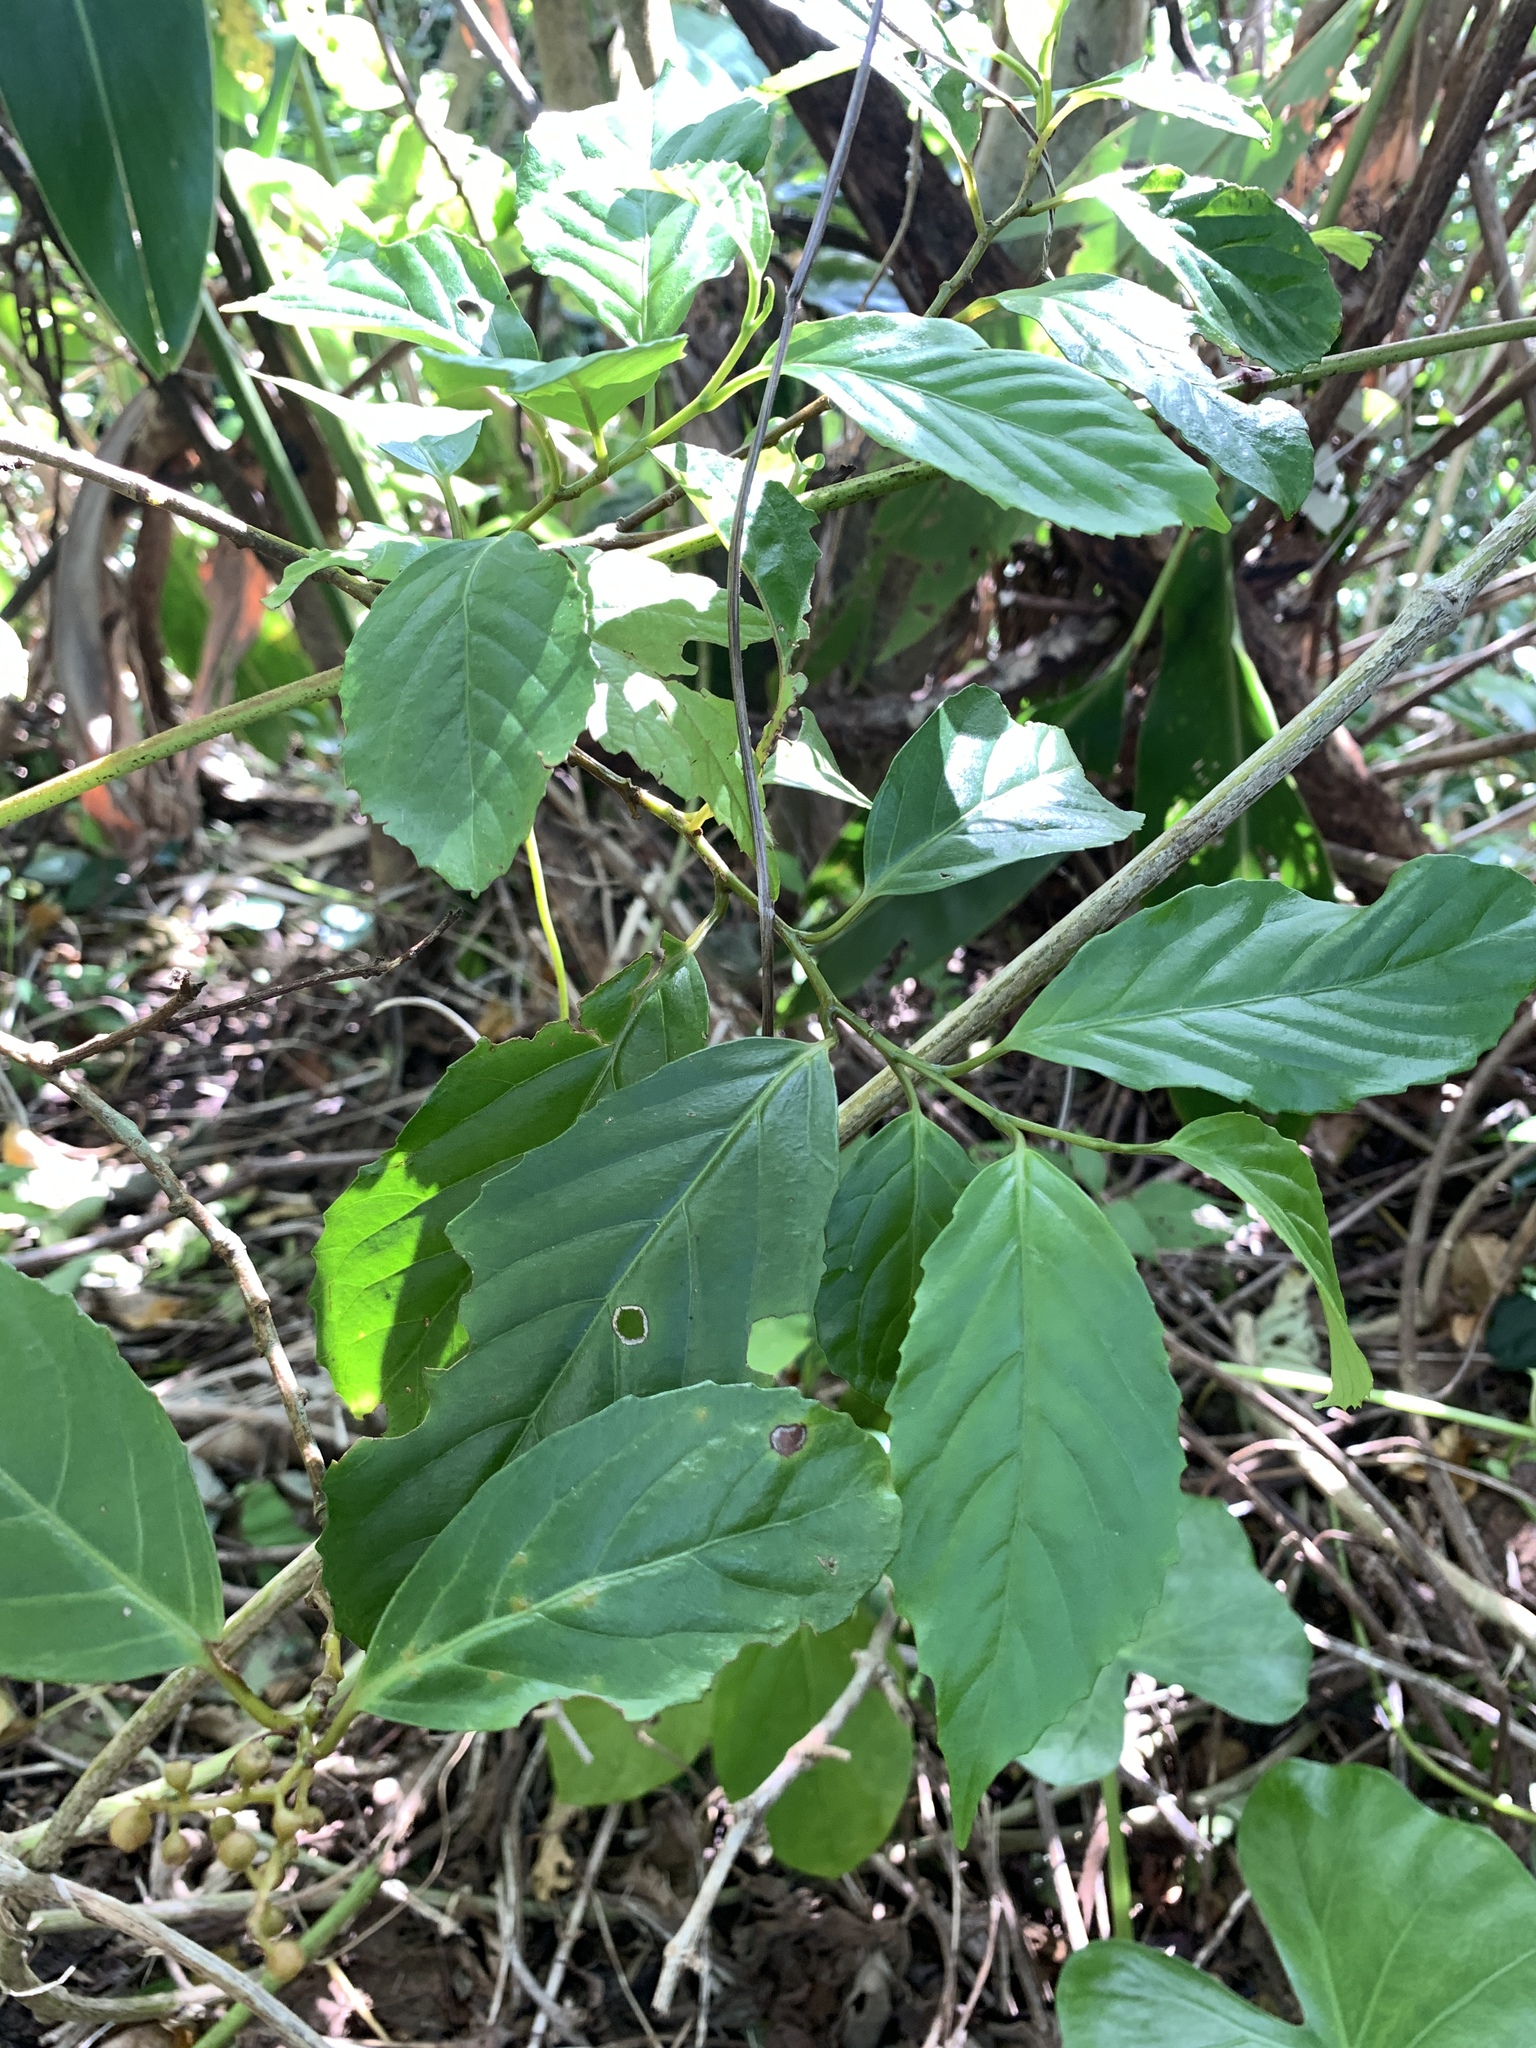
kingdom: Plantae
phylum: Tracheophyta
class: Magnoliopsida
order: Ericales
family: Primulaceae
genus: Maesa
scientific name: Maesa perlaria
